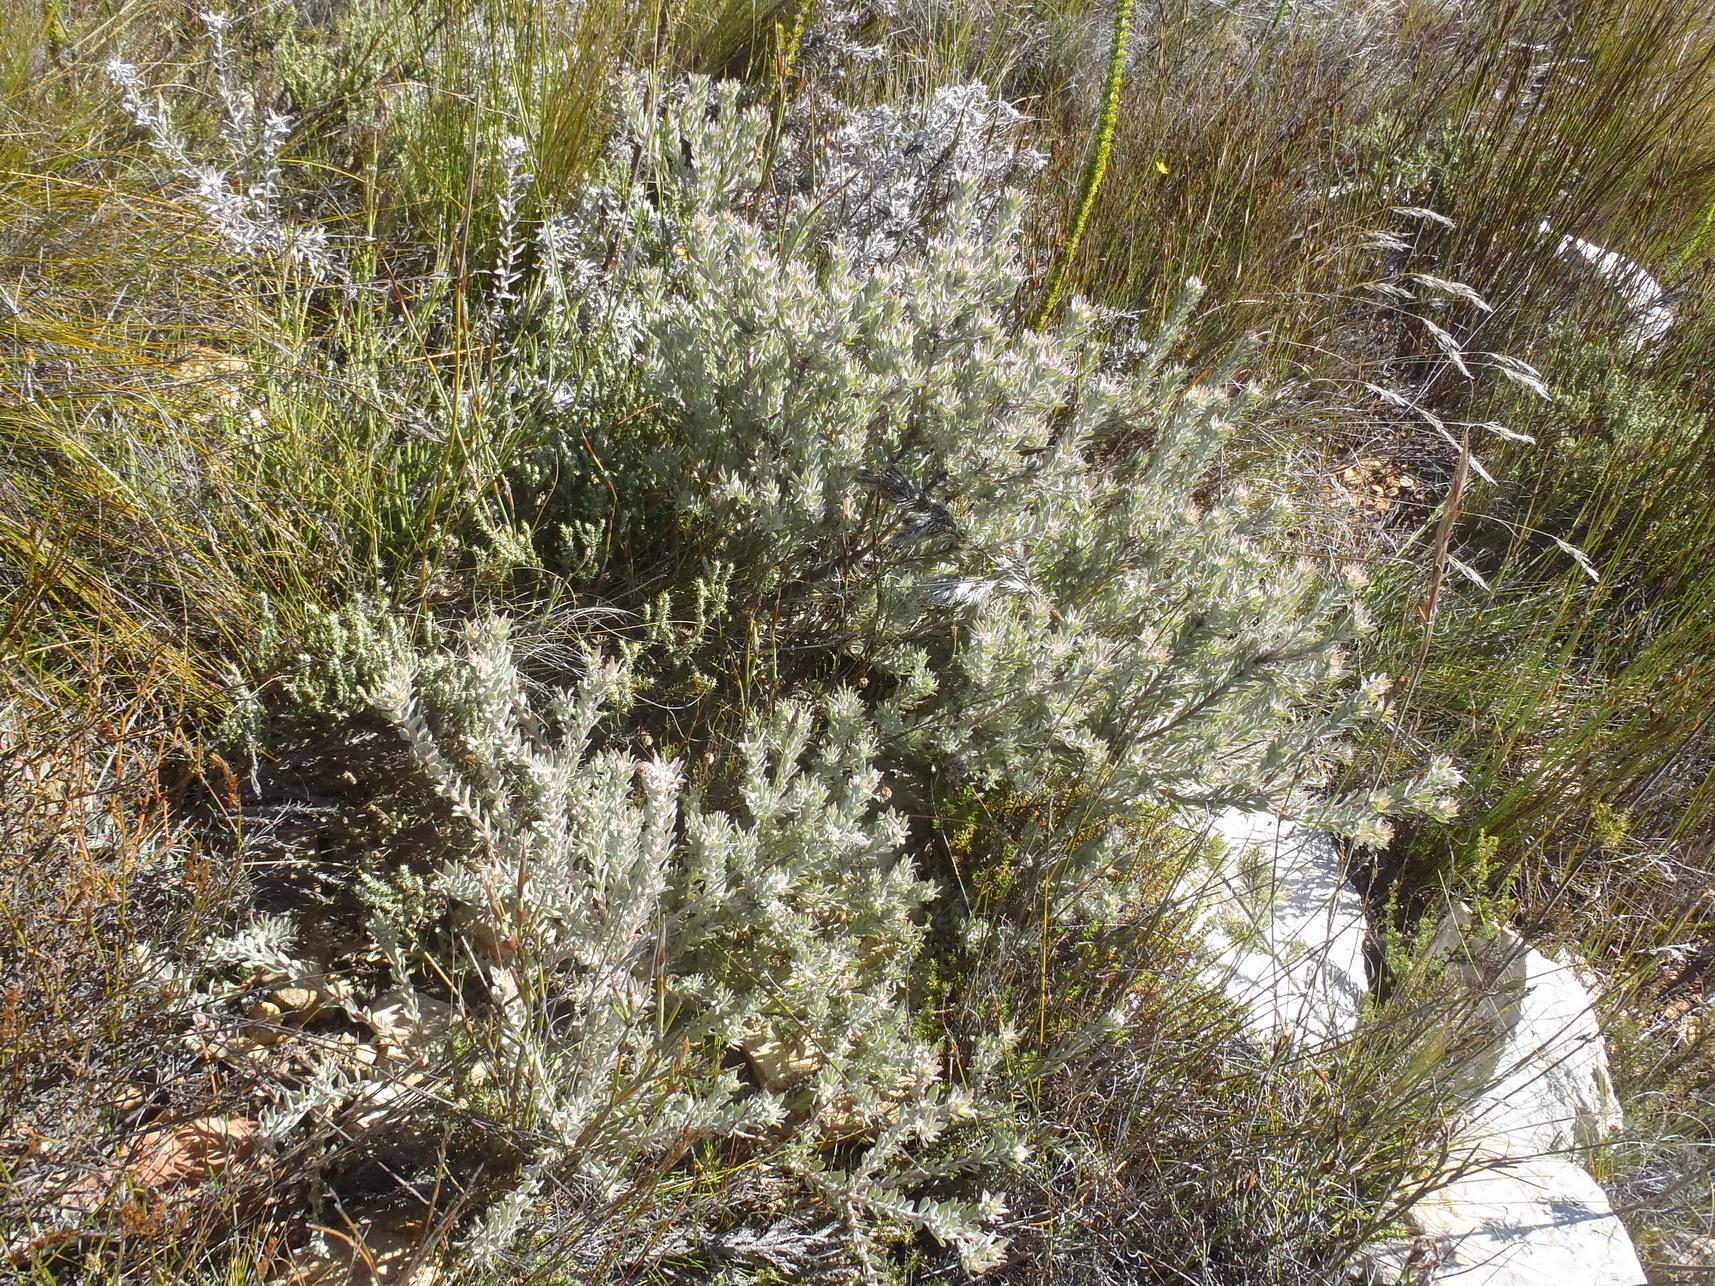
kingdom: Plantae
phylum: Tracheophyta
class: Magnoliopsida
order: Proteales
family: Proteaceae
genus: Leucospermum
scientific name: Leucospermum wittebergense
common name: Swartberg pincushion
